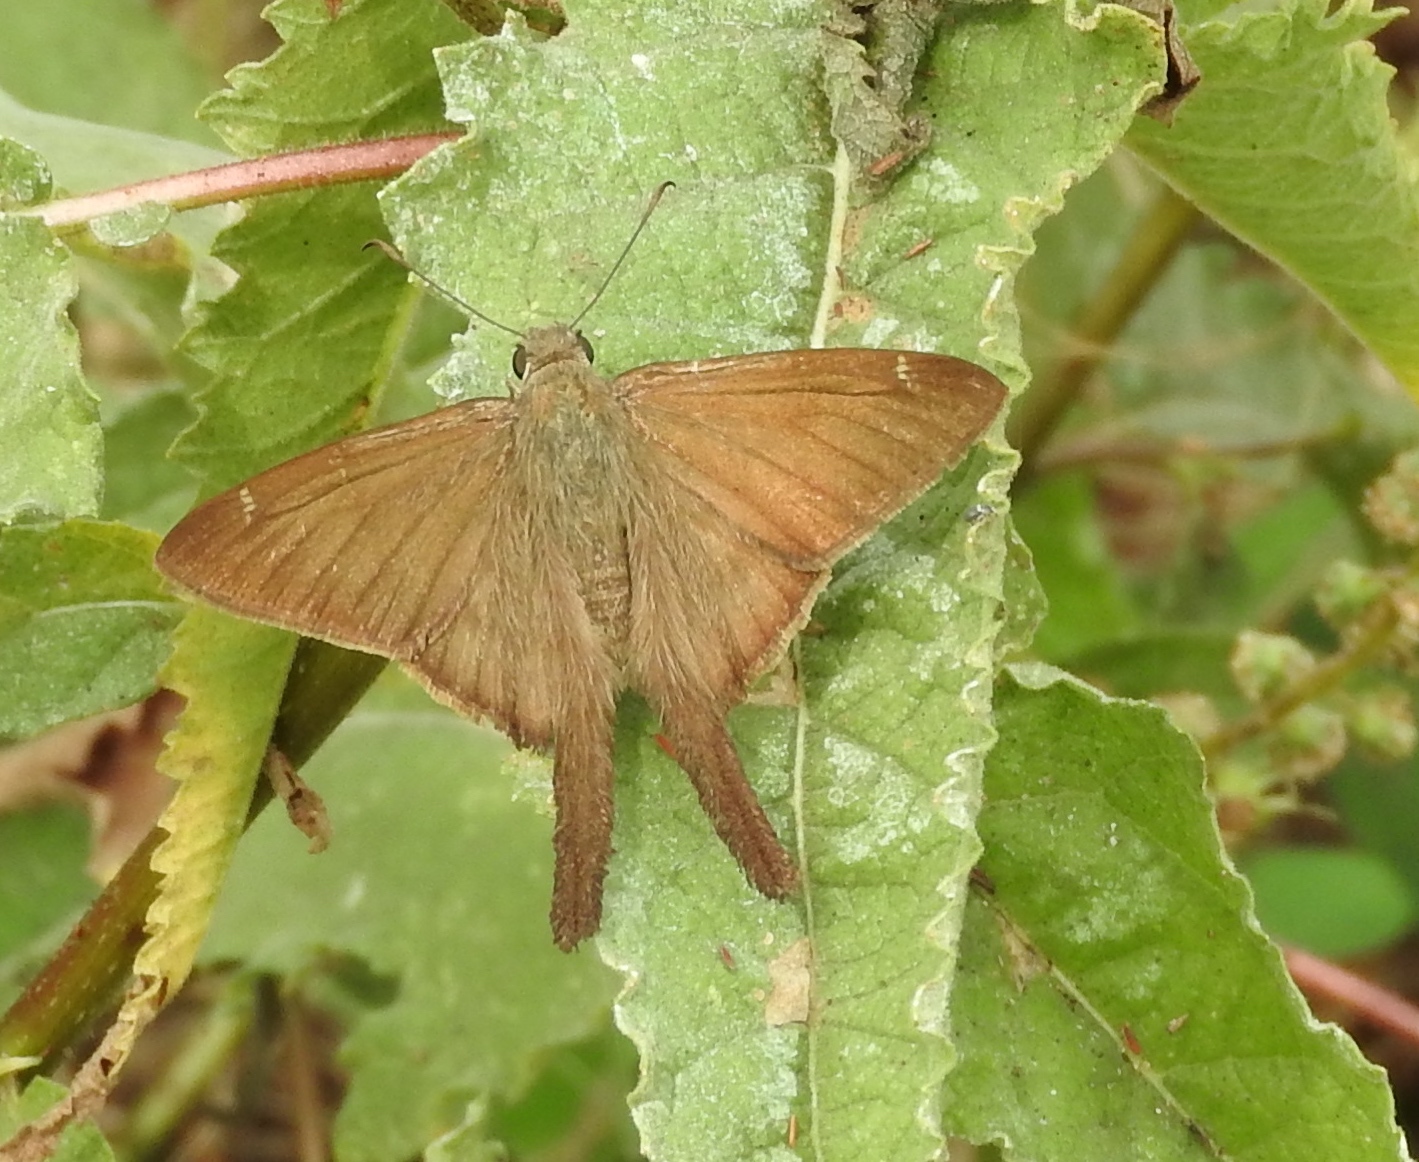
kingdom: Animalia
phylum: Arthropoda
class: Insecta
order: Lepidoptera
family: Hesperiidae
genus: Urbanus
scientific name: Urbanus procne
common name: Brown longtail
